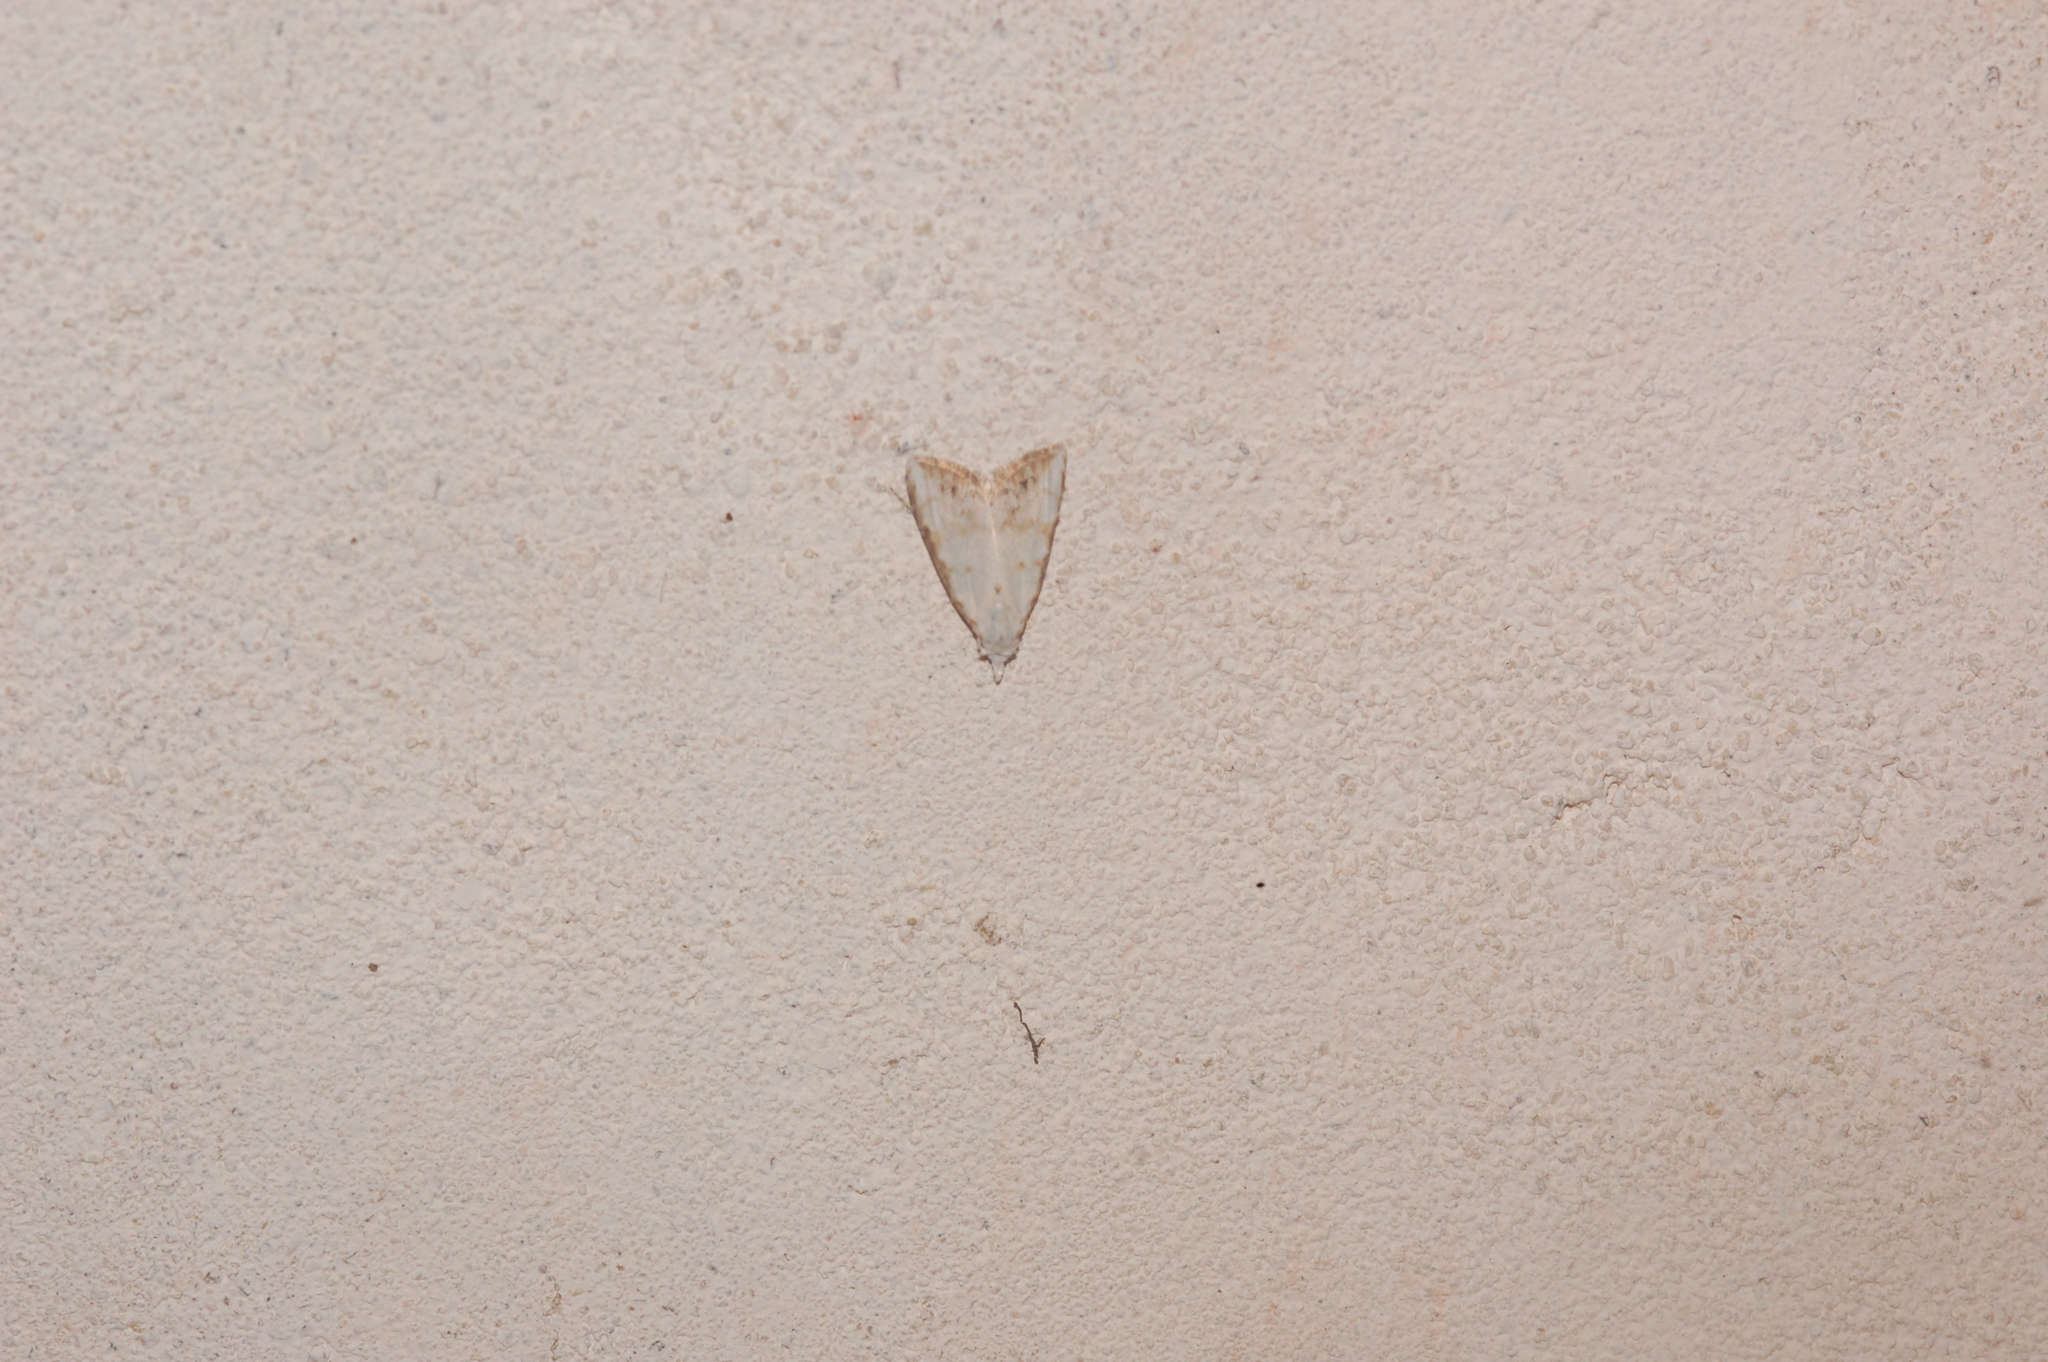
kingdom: Animalia
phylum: Arthropoda
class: Insecta
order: Lepidoptera
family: Nolidae
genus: Nola
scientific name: Nola cereella
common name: Sorghum webworm moth
